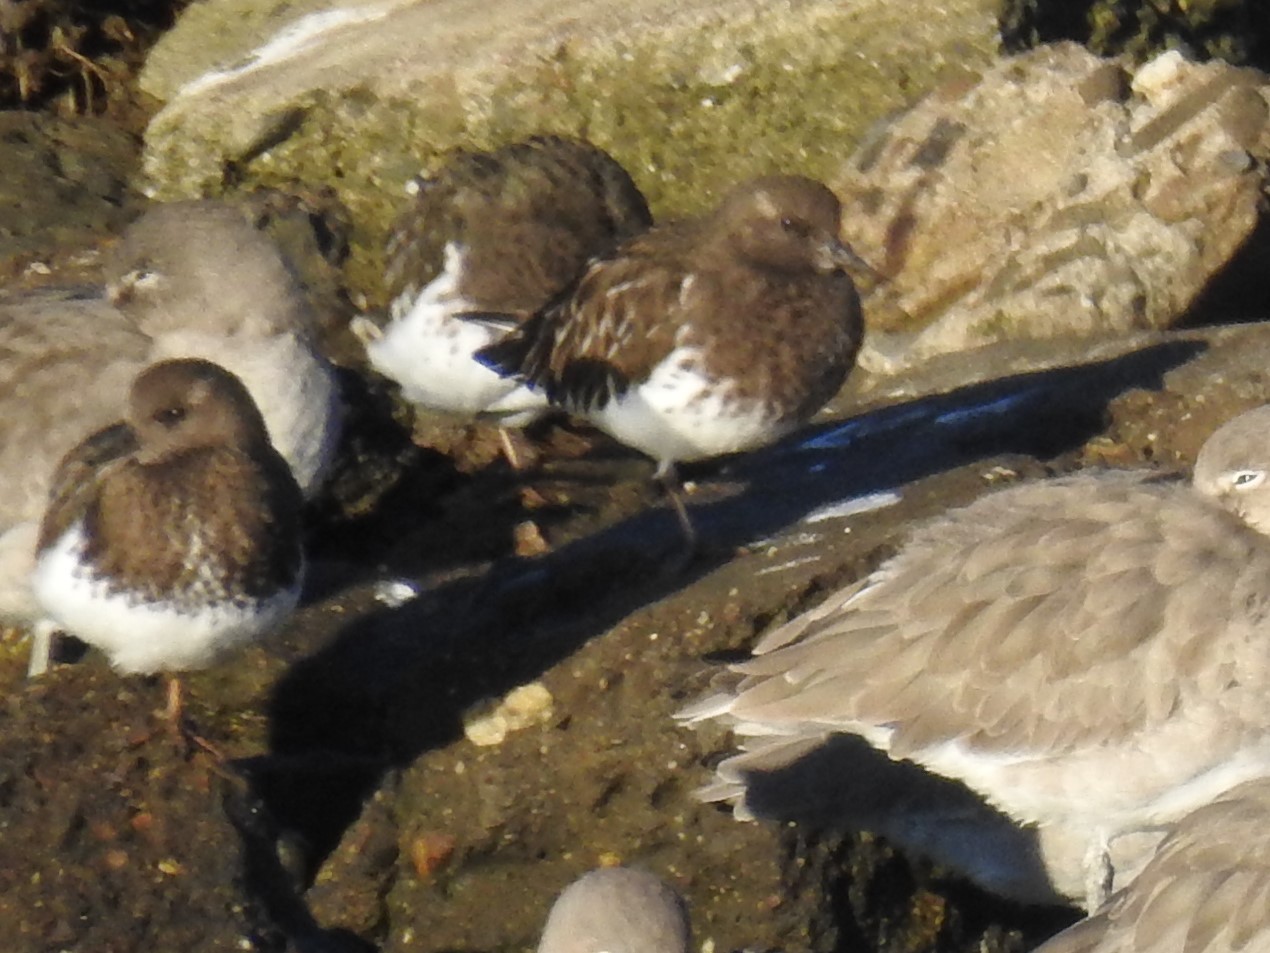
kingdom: Animalia
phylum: Chordata
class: Aves
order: Charadriiformes
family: Scolopacidae
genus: Arenaria
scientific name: Arenaria melanocephala
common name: Black turnstone
